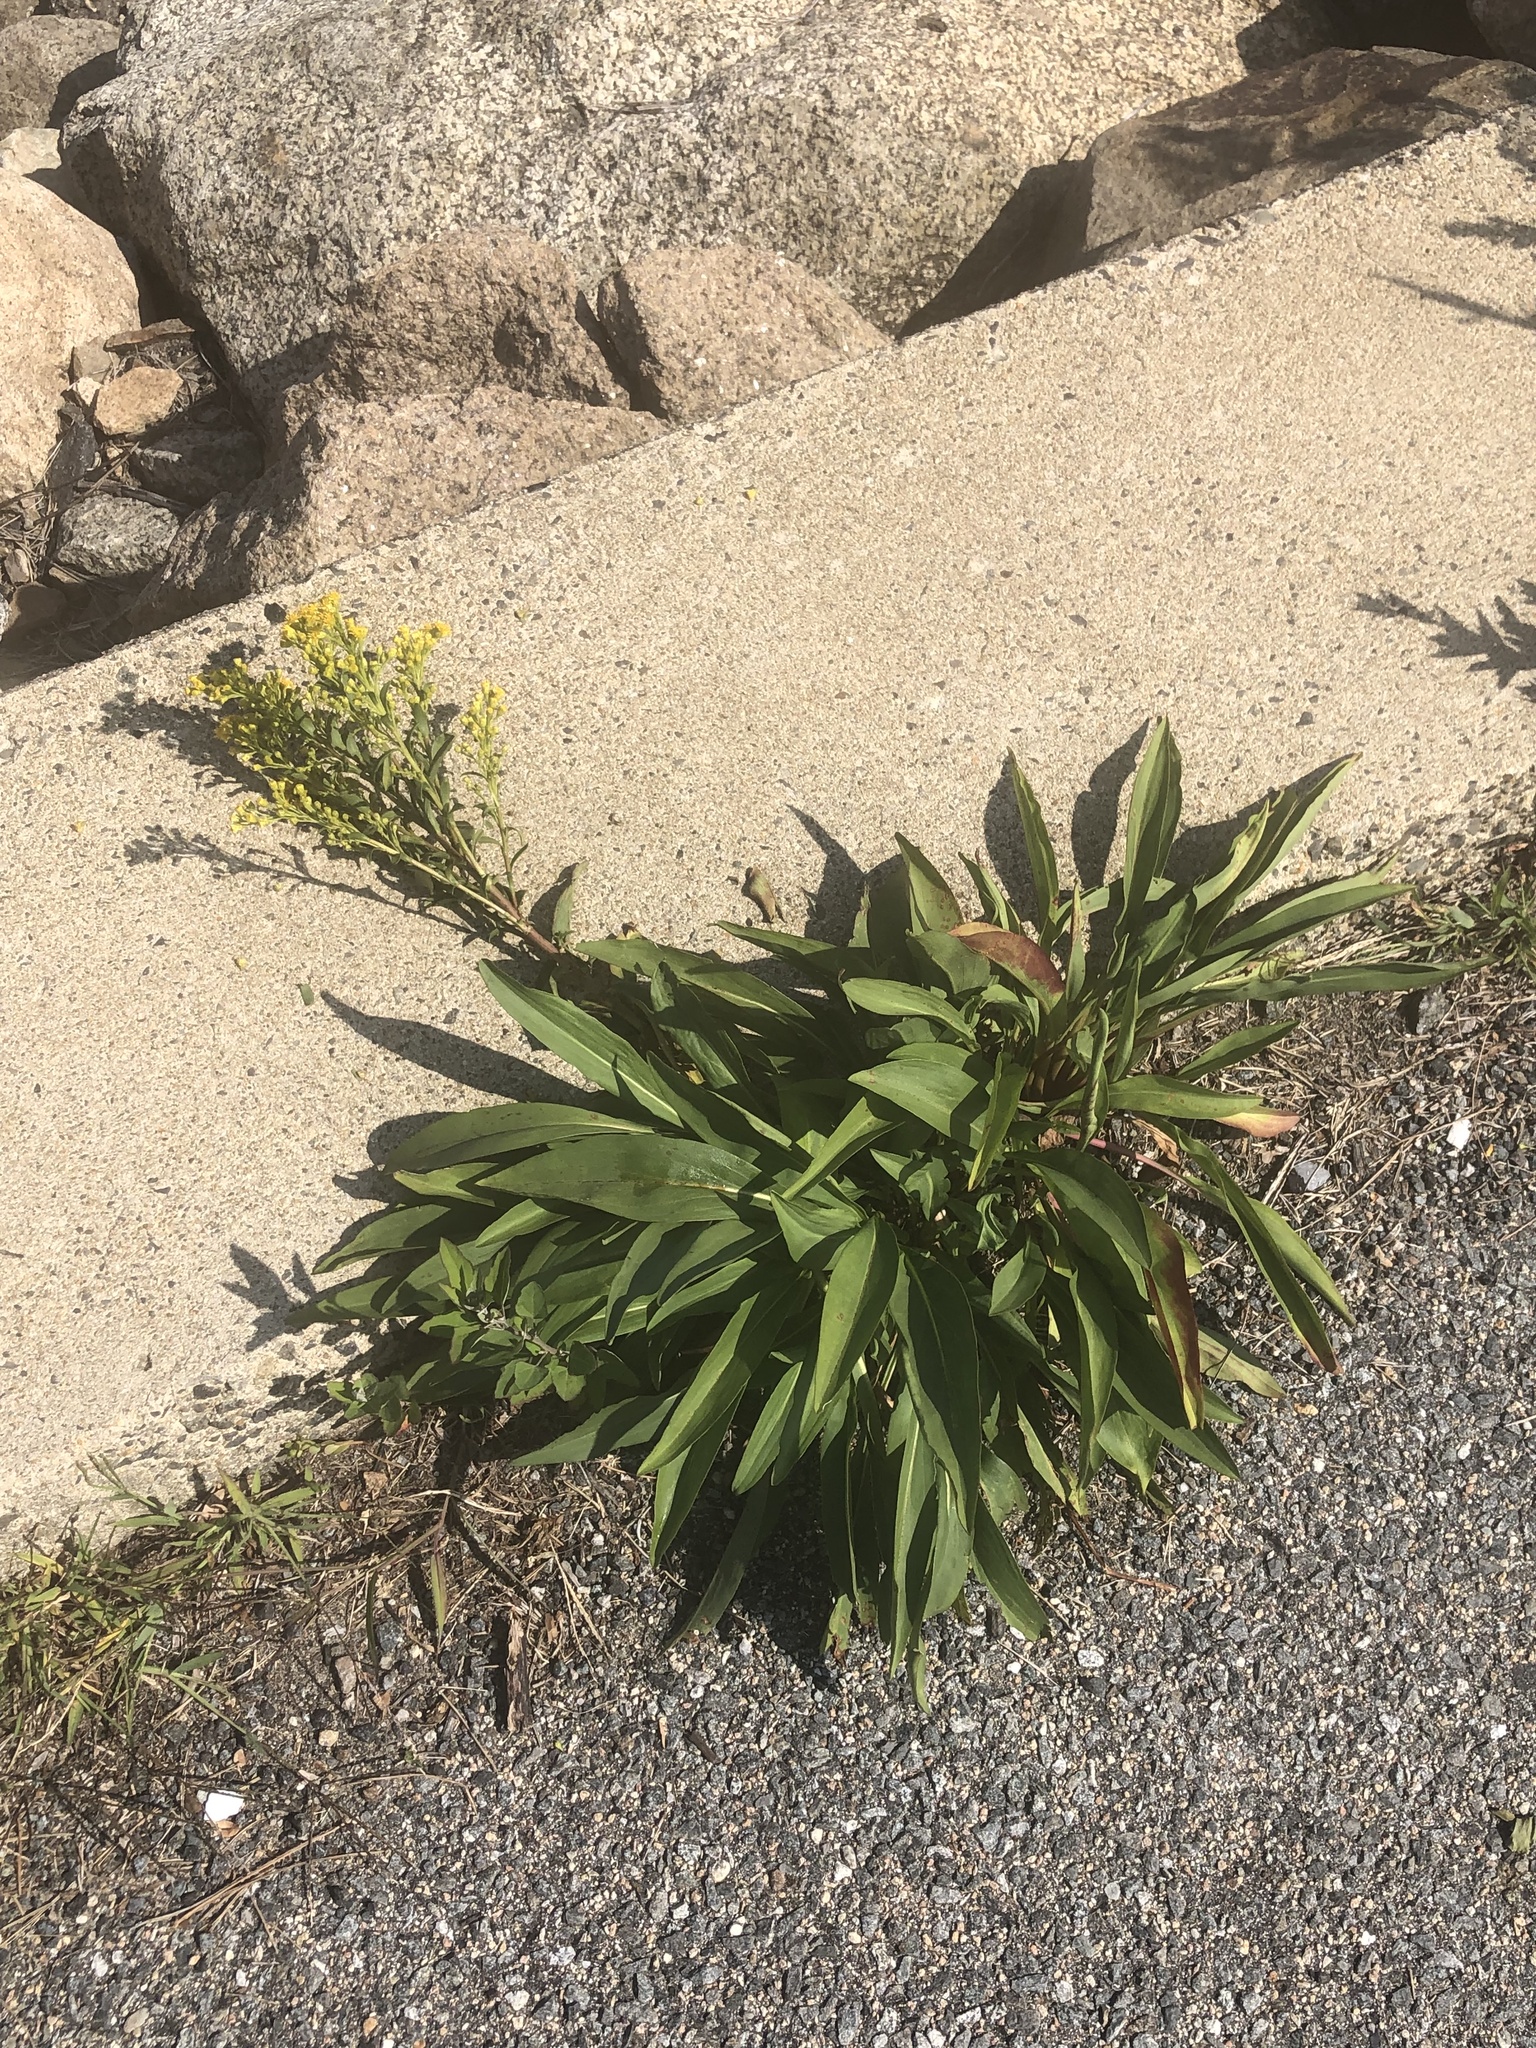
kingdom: Plantae
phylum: Tracheophyta
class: Magnoliopsida
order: Asterales
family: Asteraceae
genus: Solidago
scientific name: Solidago sempervirens
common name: Salt-marsh goldenrod
